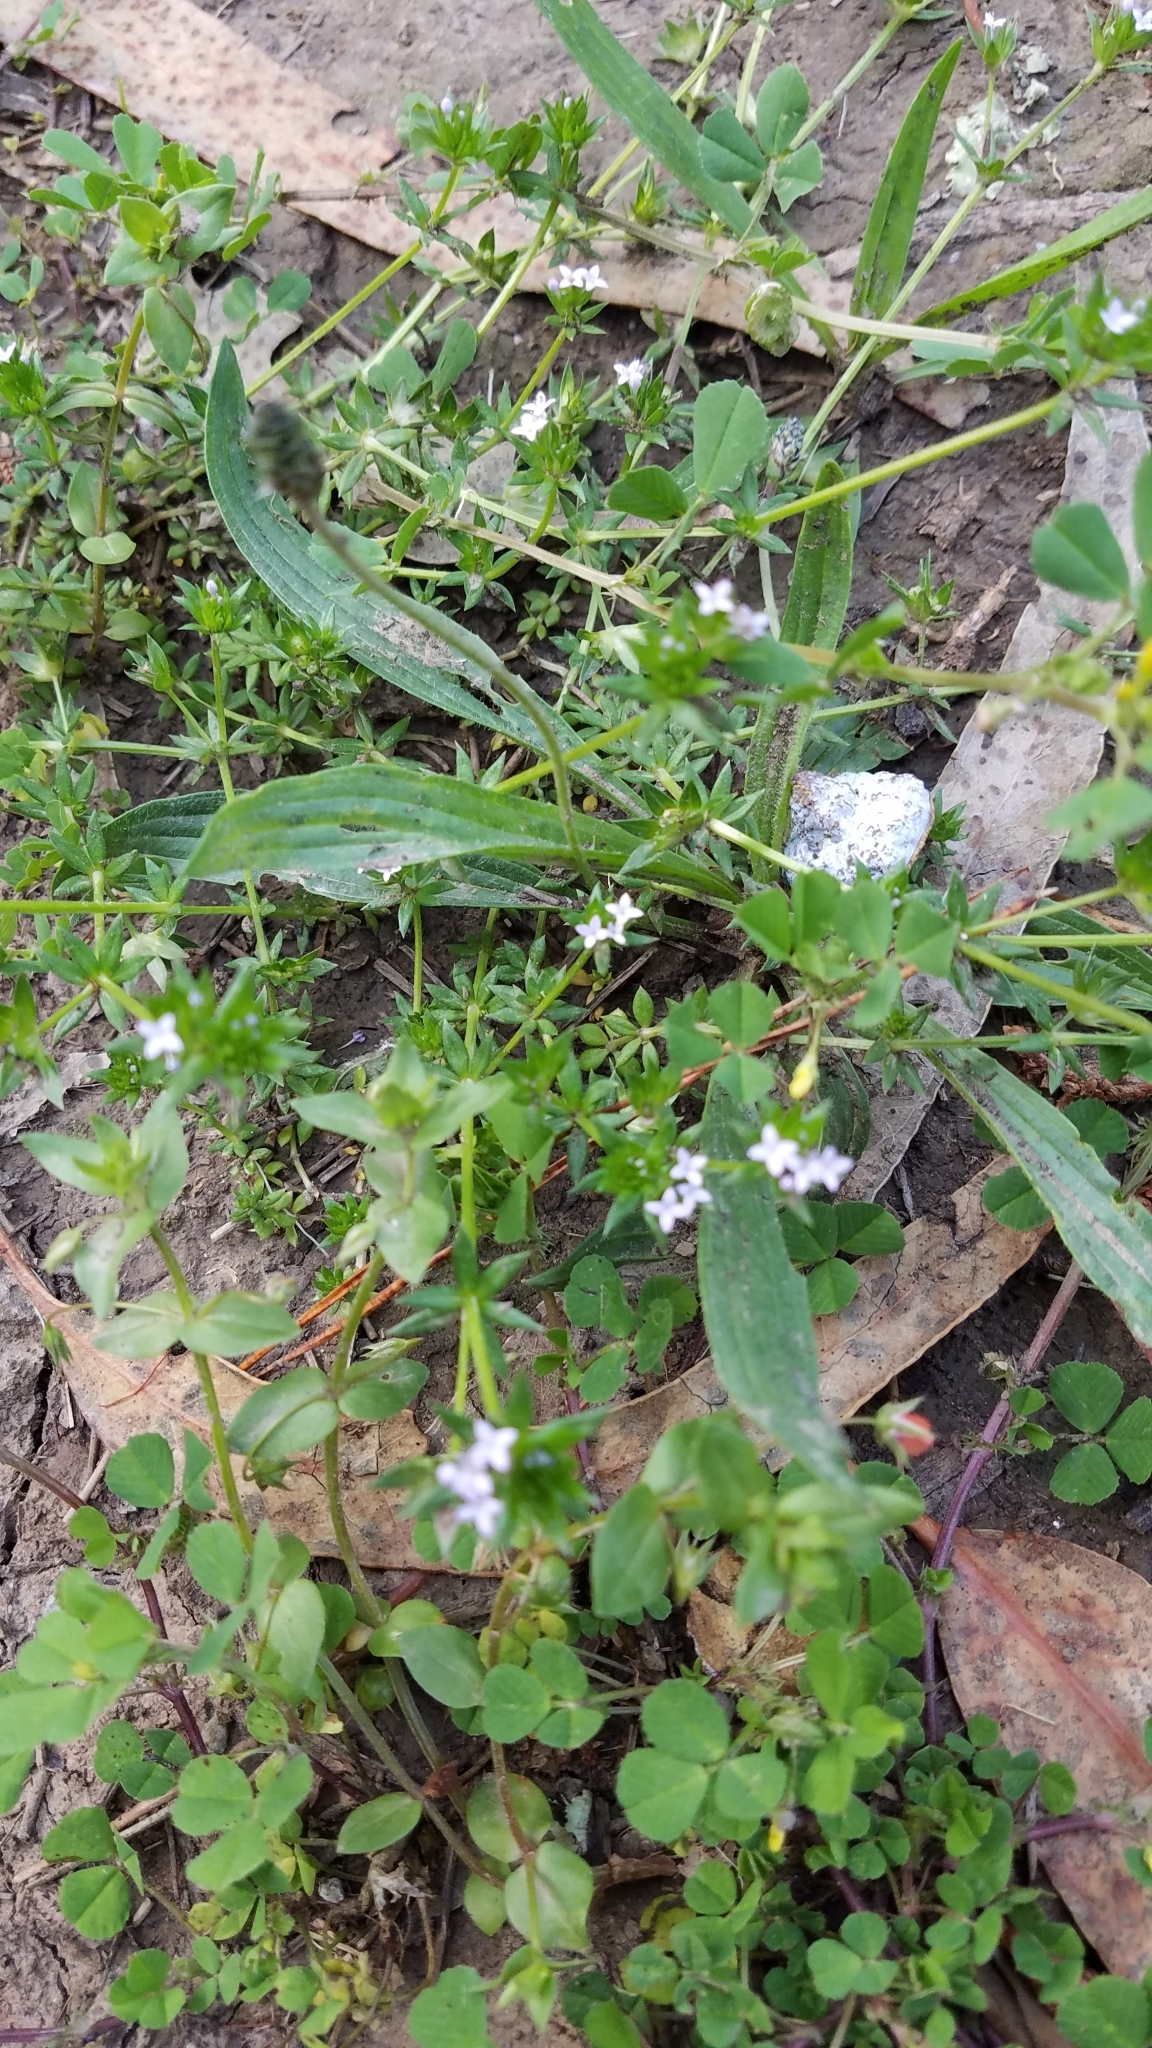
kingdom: Plantae
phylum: Tracheophyta
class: Magnoliopsida
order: Gentianales
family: Rubiaceae
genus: Sherardia
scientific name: Sherardia arvensis
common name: Field madder
